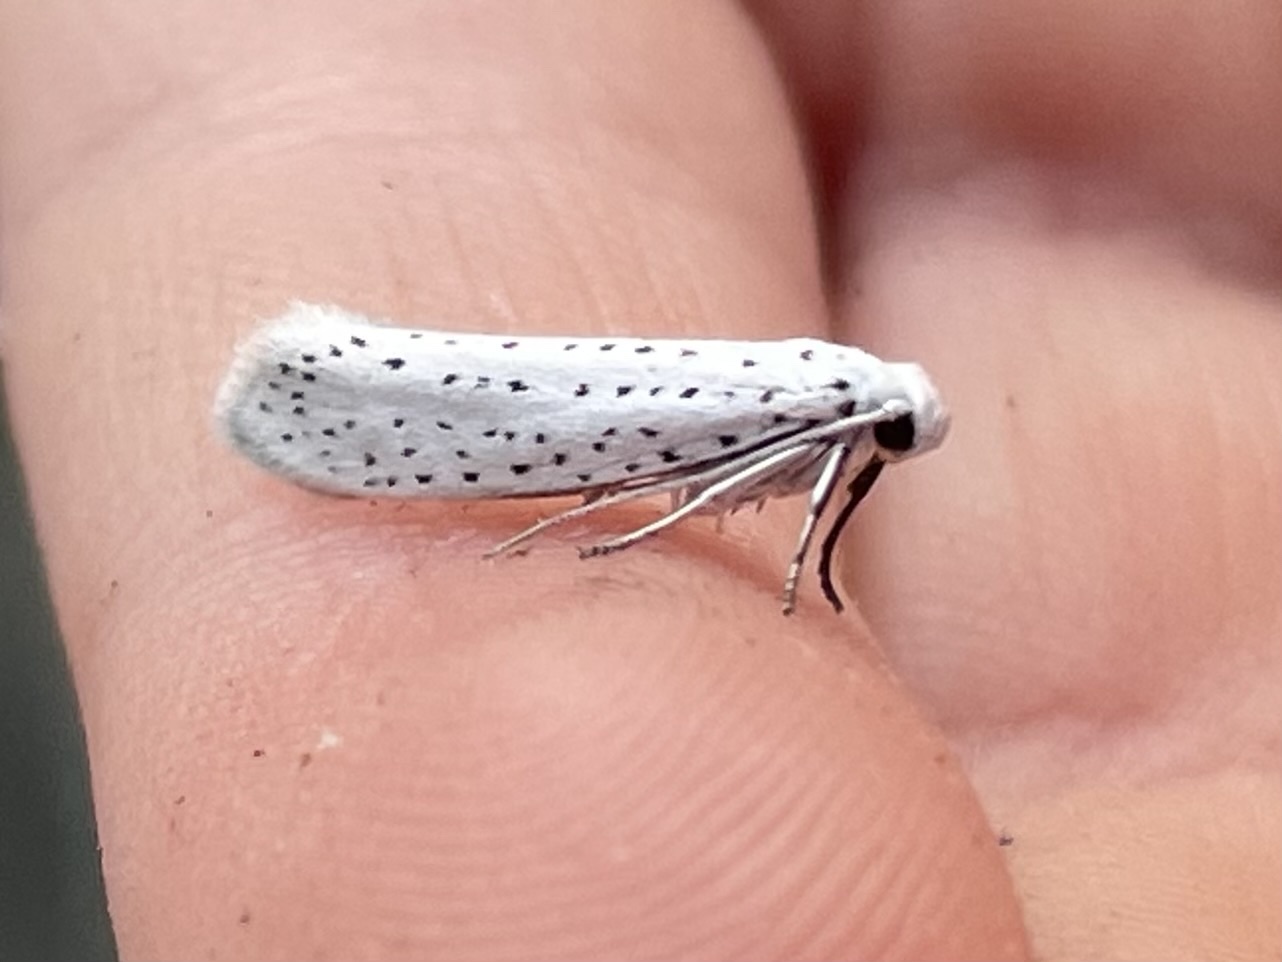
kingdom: Animalia
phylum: Arthropoda
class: Insecta
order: Lepidoptera
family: Yponomeutidae
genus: Yponomeuta
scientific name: Yponomeuta evonymella
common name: Bird-cherry ermine
